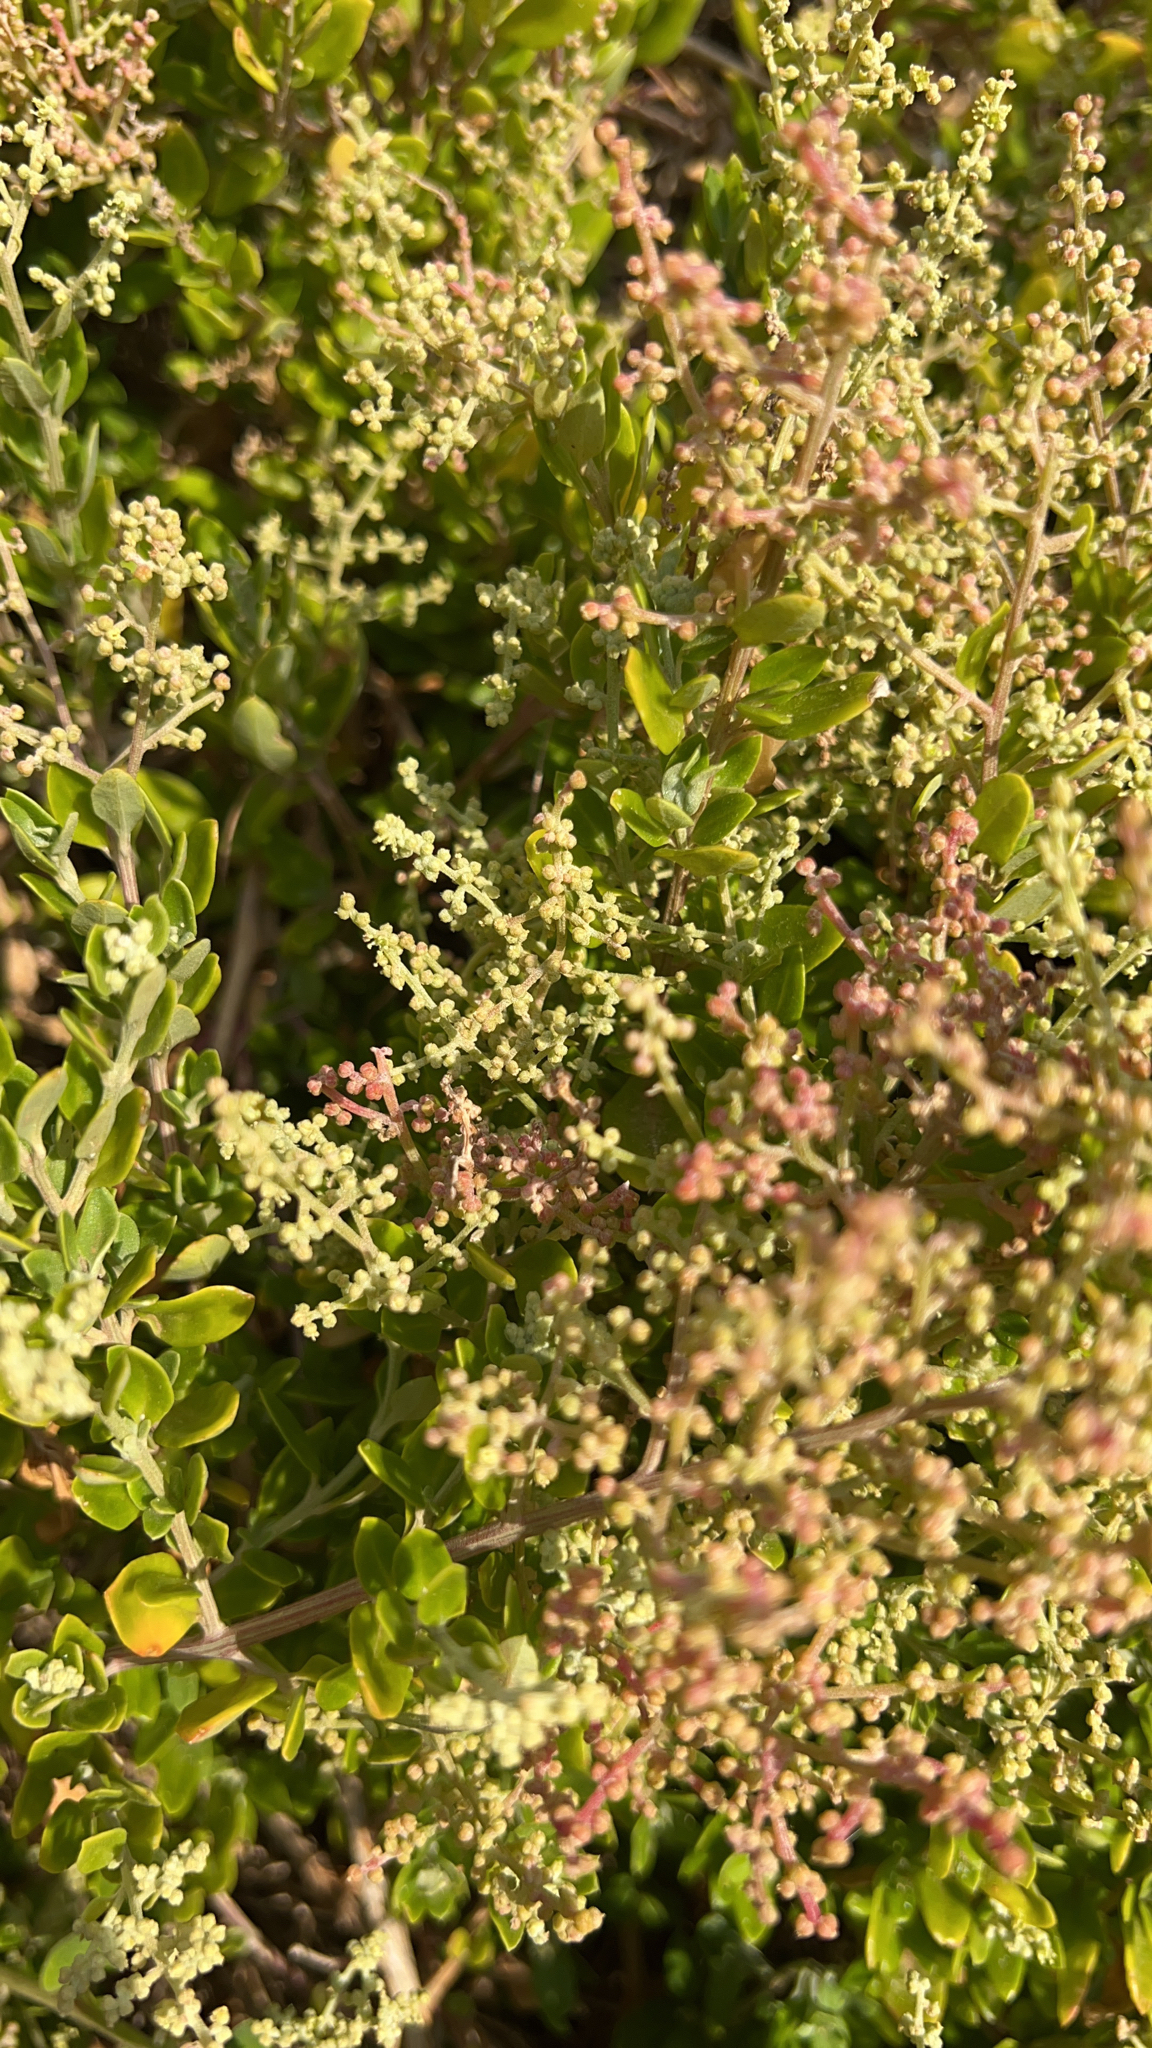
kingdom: Plantae
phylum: Tracheophyta
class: Magnoliopsida
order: Caryophyllales
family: Amaranthaceae
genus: Chenopodium
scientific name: Chenopodium candolleanum
